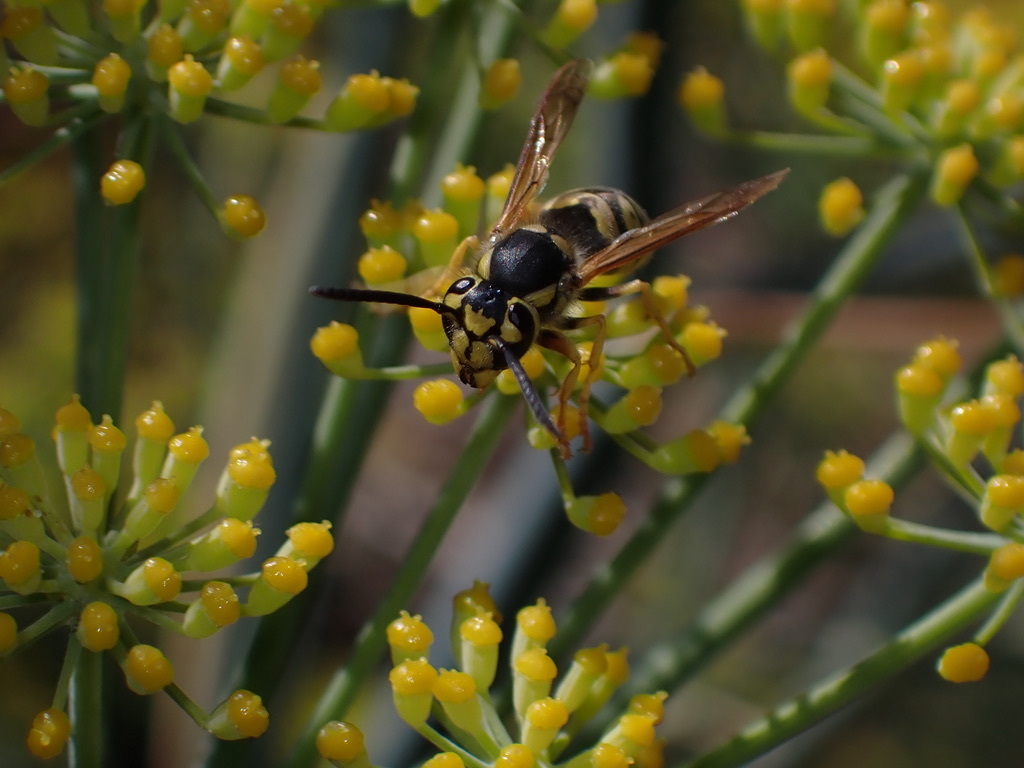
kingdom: Animalia
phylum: Arthropoda
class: Insecta
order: Hymenoptera
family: Vespidae
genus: Vespula
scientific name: Vespula pensylvanica
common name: Western yellowjacket
